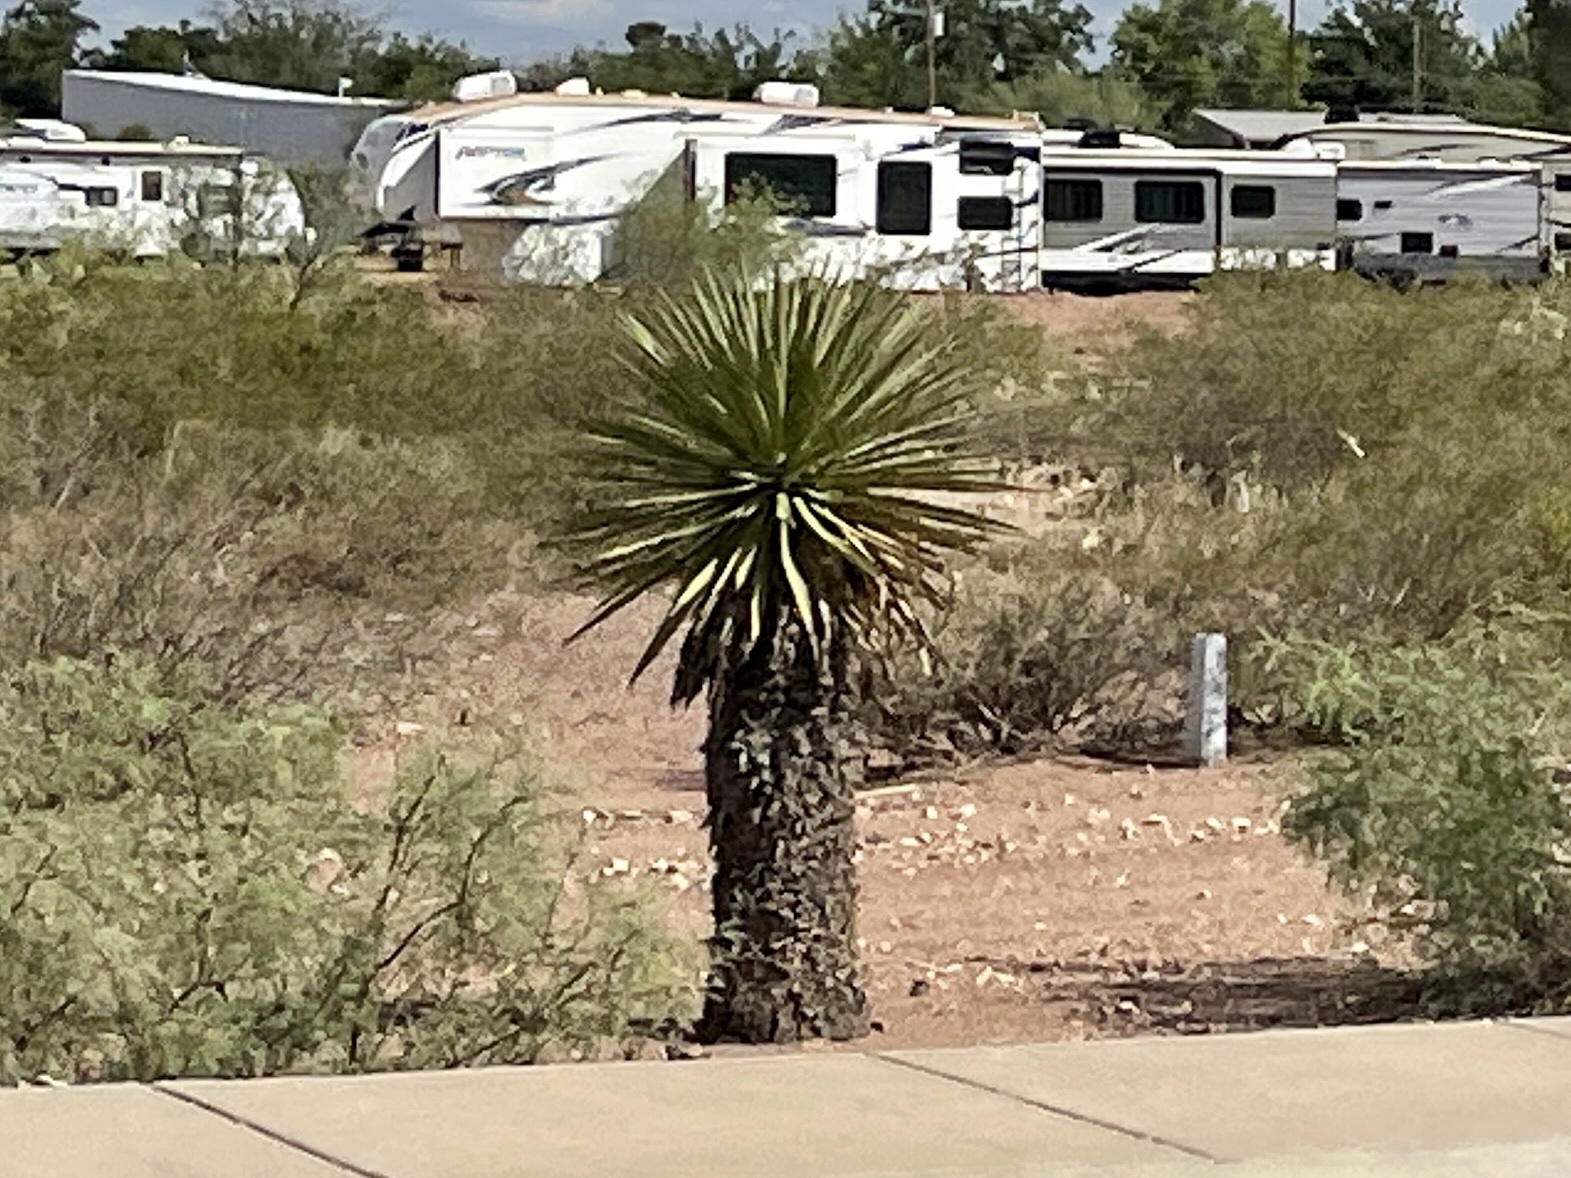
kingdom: Plantae
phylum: Tracheophyta
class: Liliopsida
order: Asparagales
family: Asparagaceae
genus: Yucca
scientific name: Yucca faxoniana
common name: Spanish dagger
